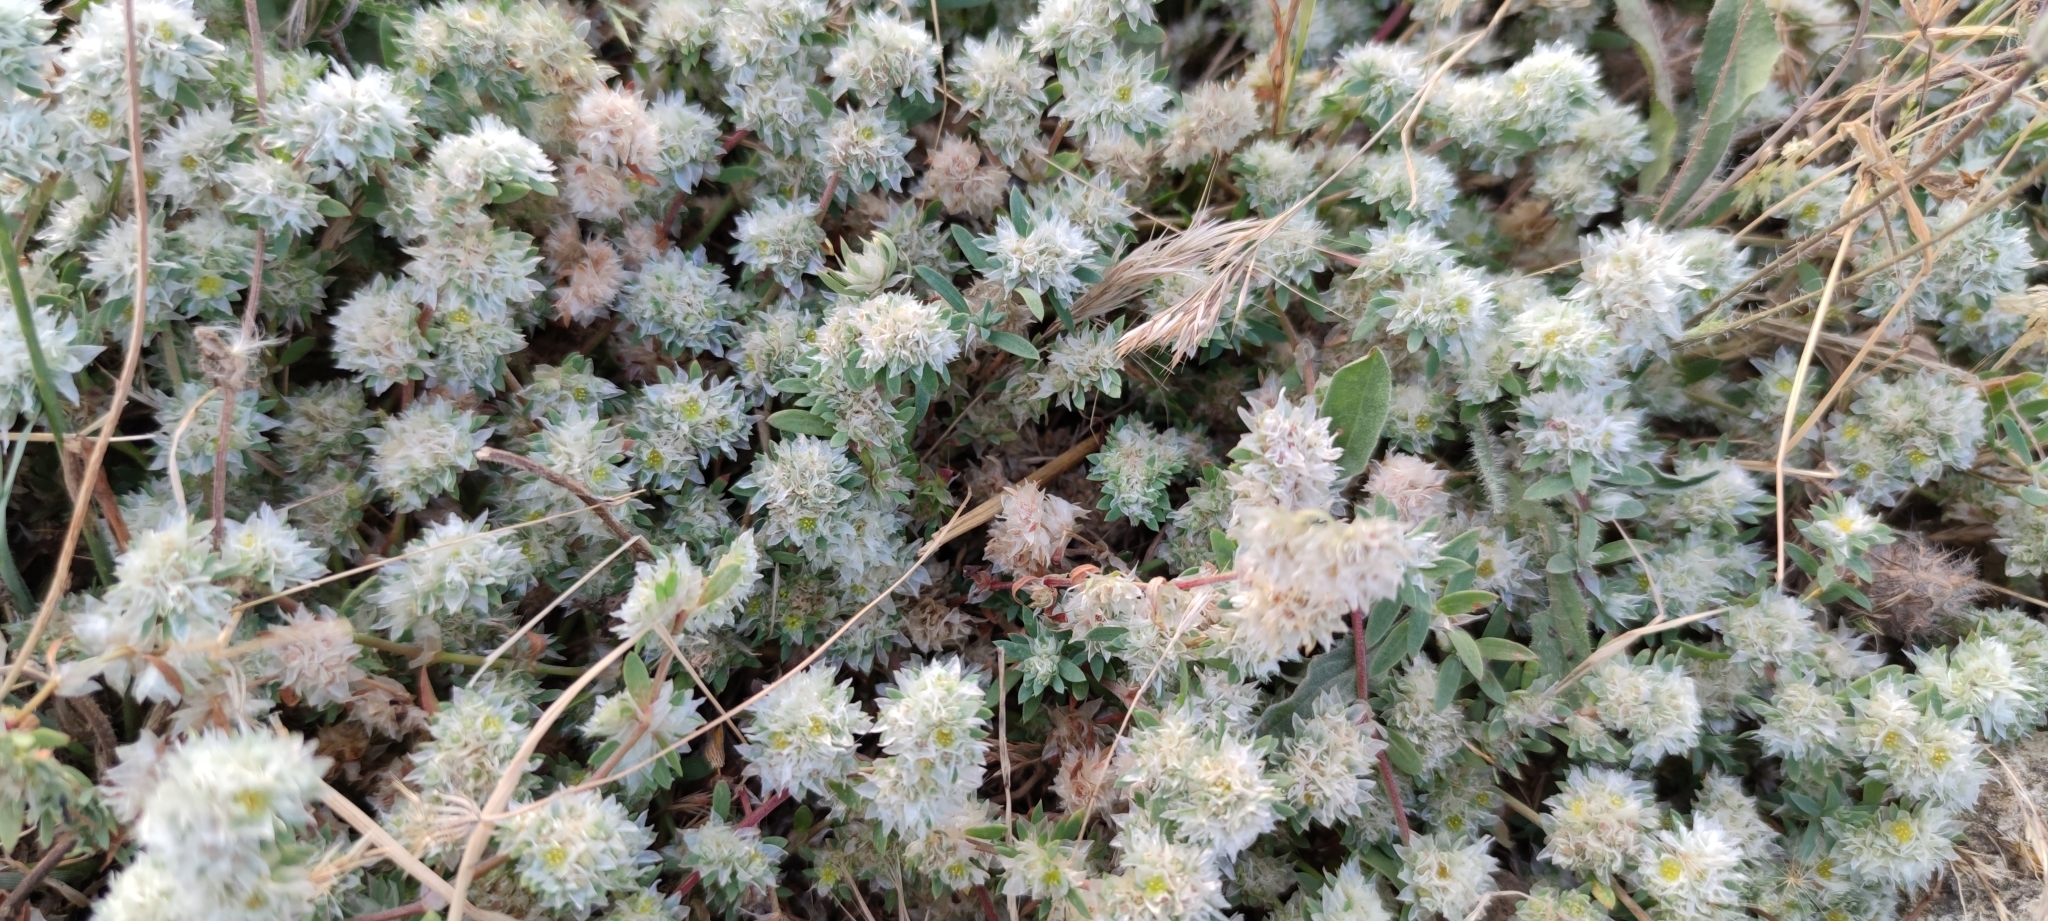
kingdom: Plantae
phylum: Tracheophyta
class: Magnoliopsida
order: Caryophyllales
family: Caryophyllaceae
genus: Paronychia
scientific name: Paronychia argentea
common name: Silver nailroot
